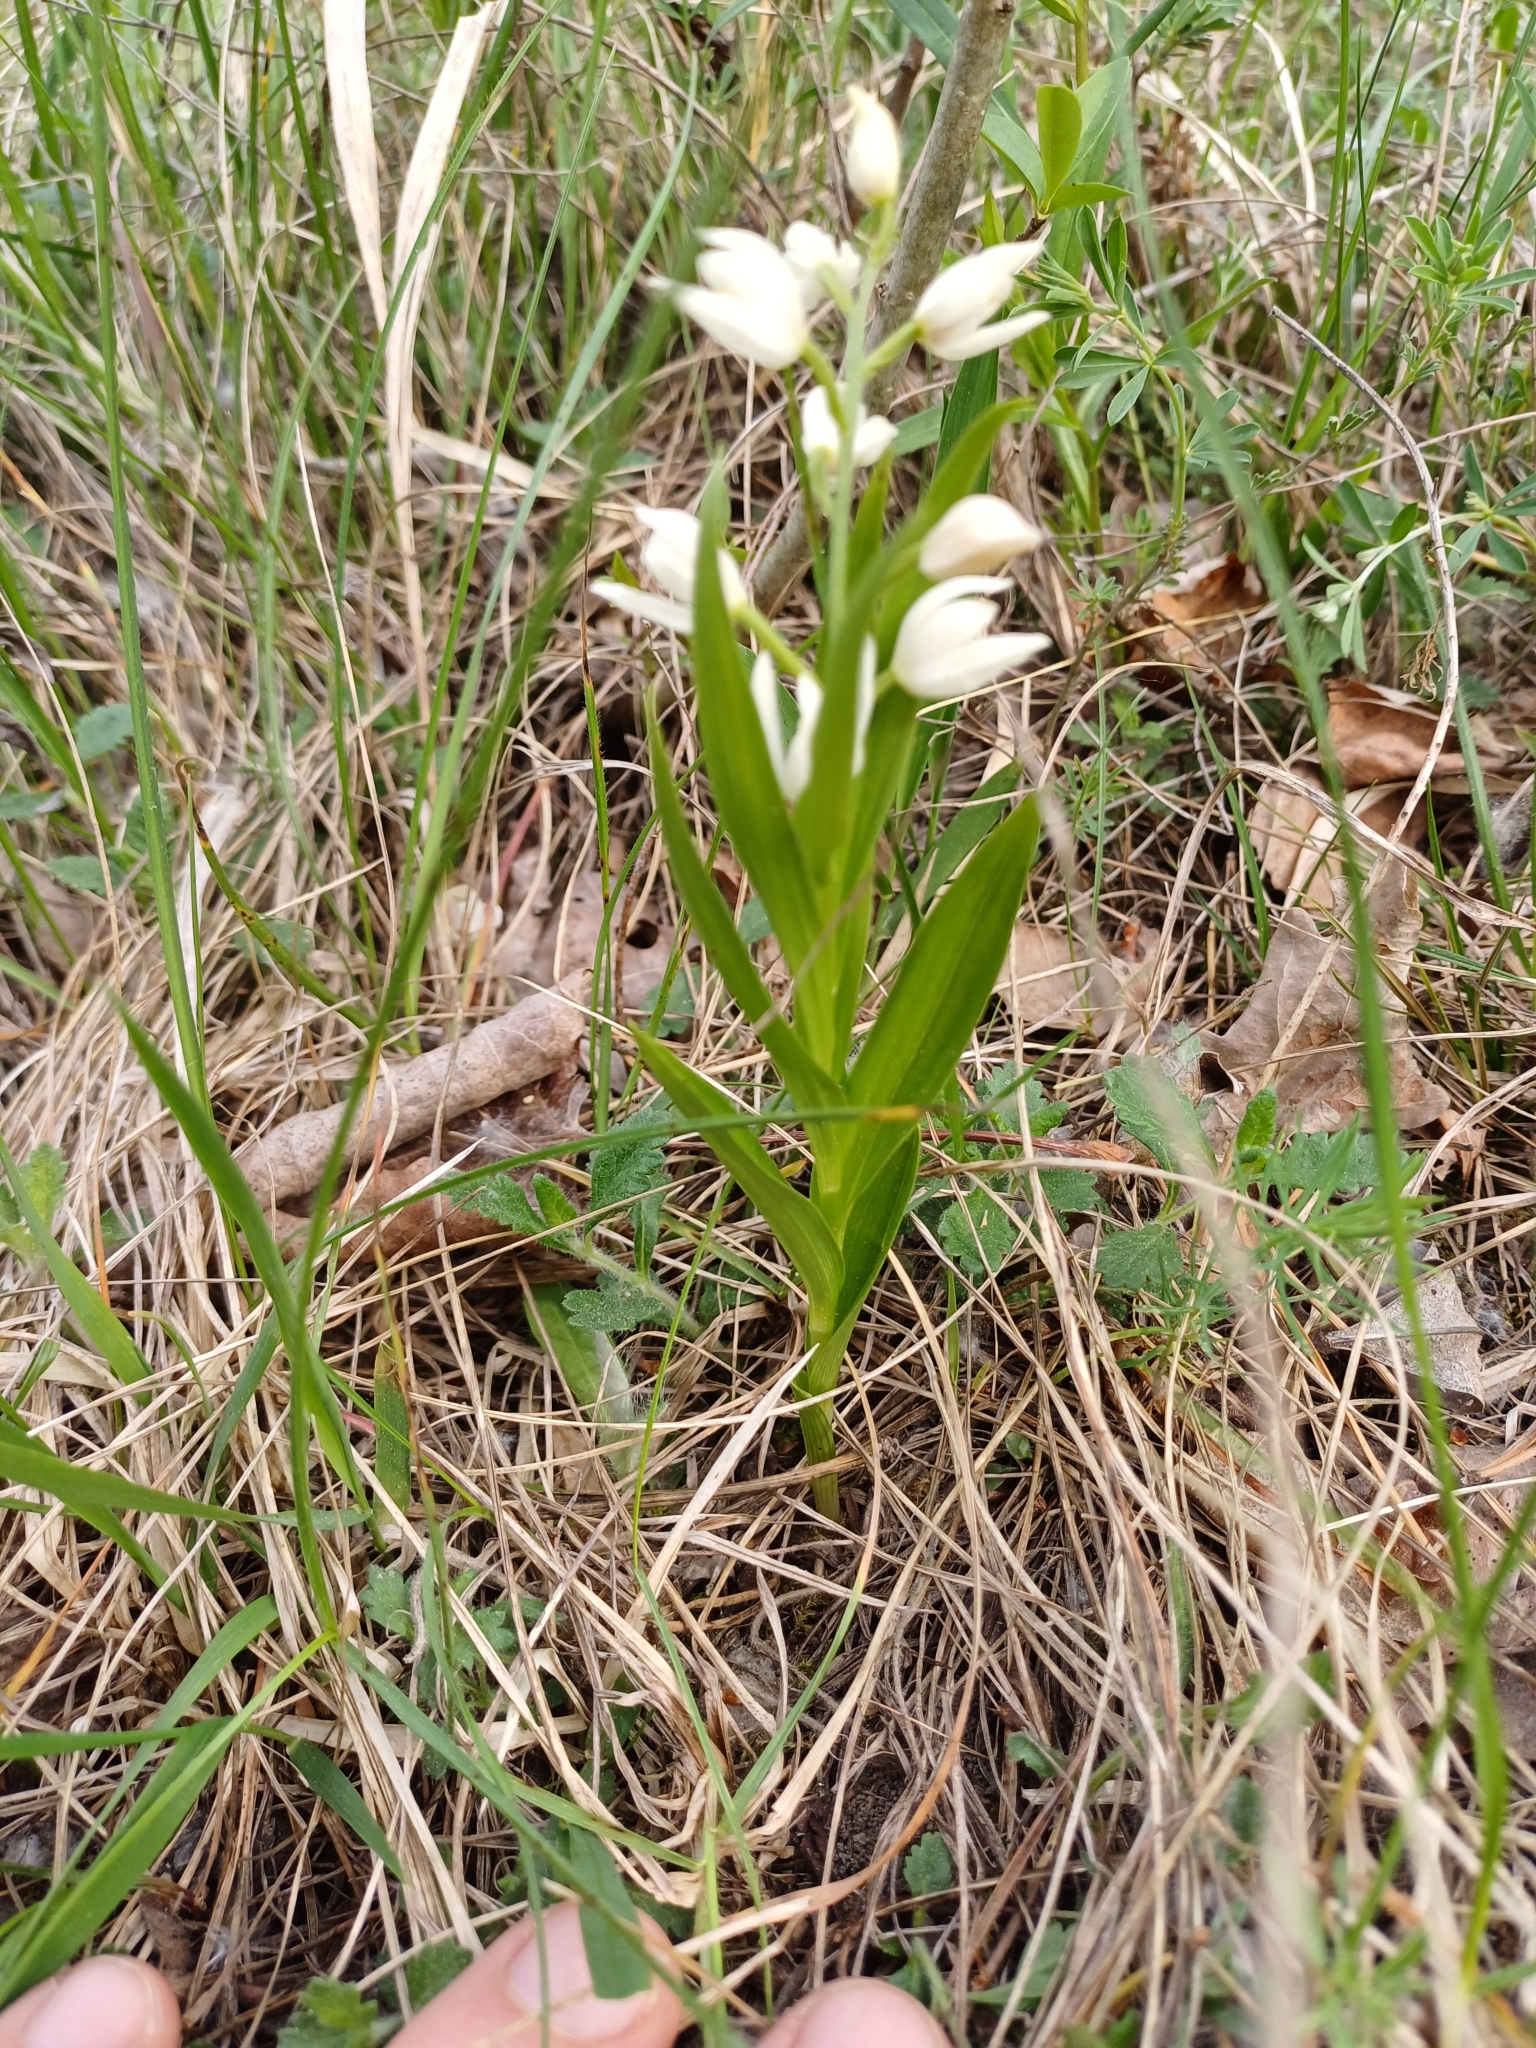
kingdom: Plantae
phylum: Tracheophyta
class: Liliopsida
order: Asparagales
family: Orchidaceae
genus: Cephalanthera
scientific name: Cephalanthera longifolia
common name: Narrow-leaved helleborine
